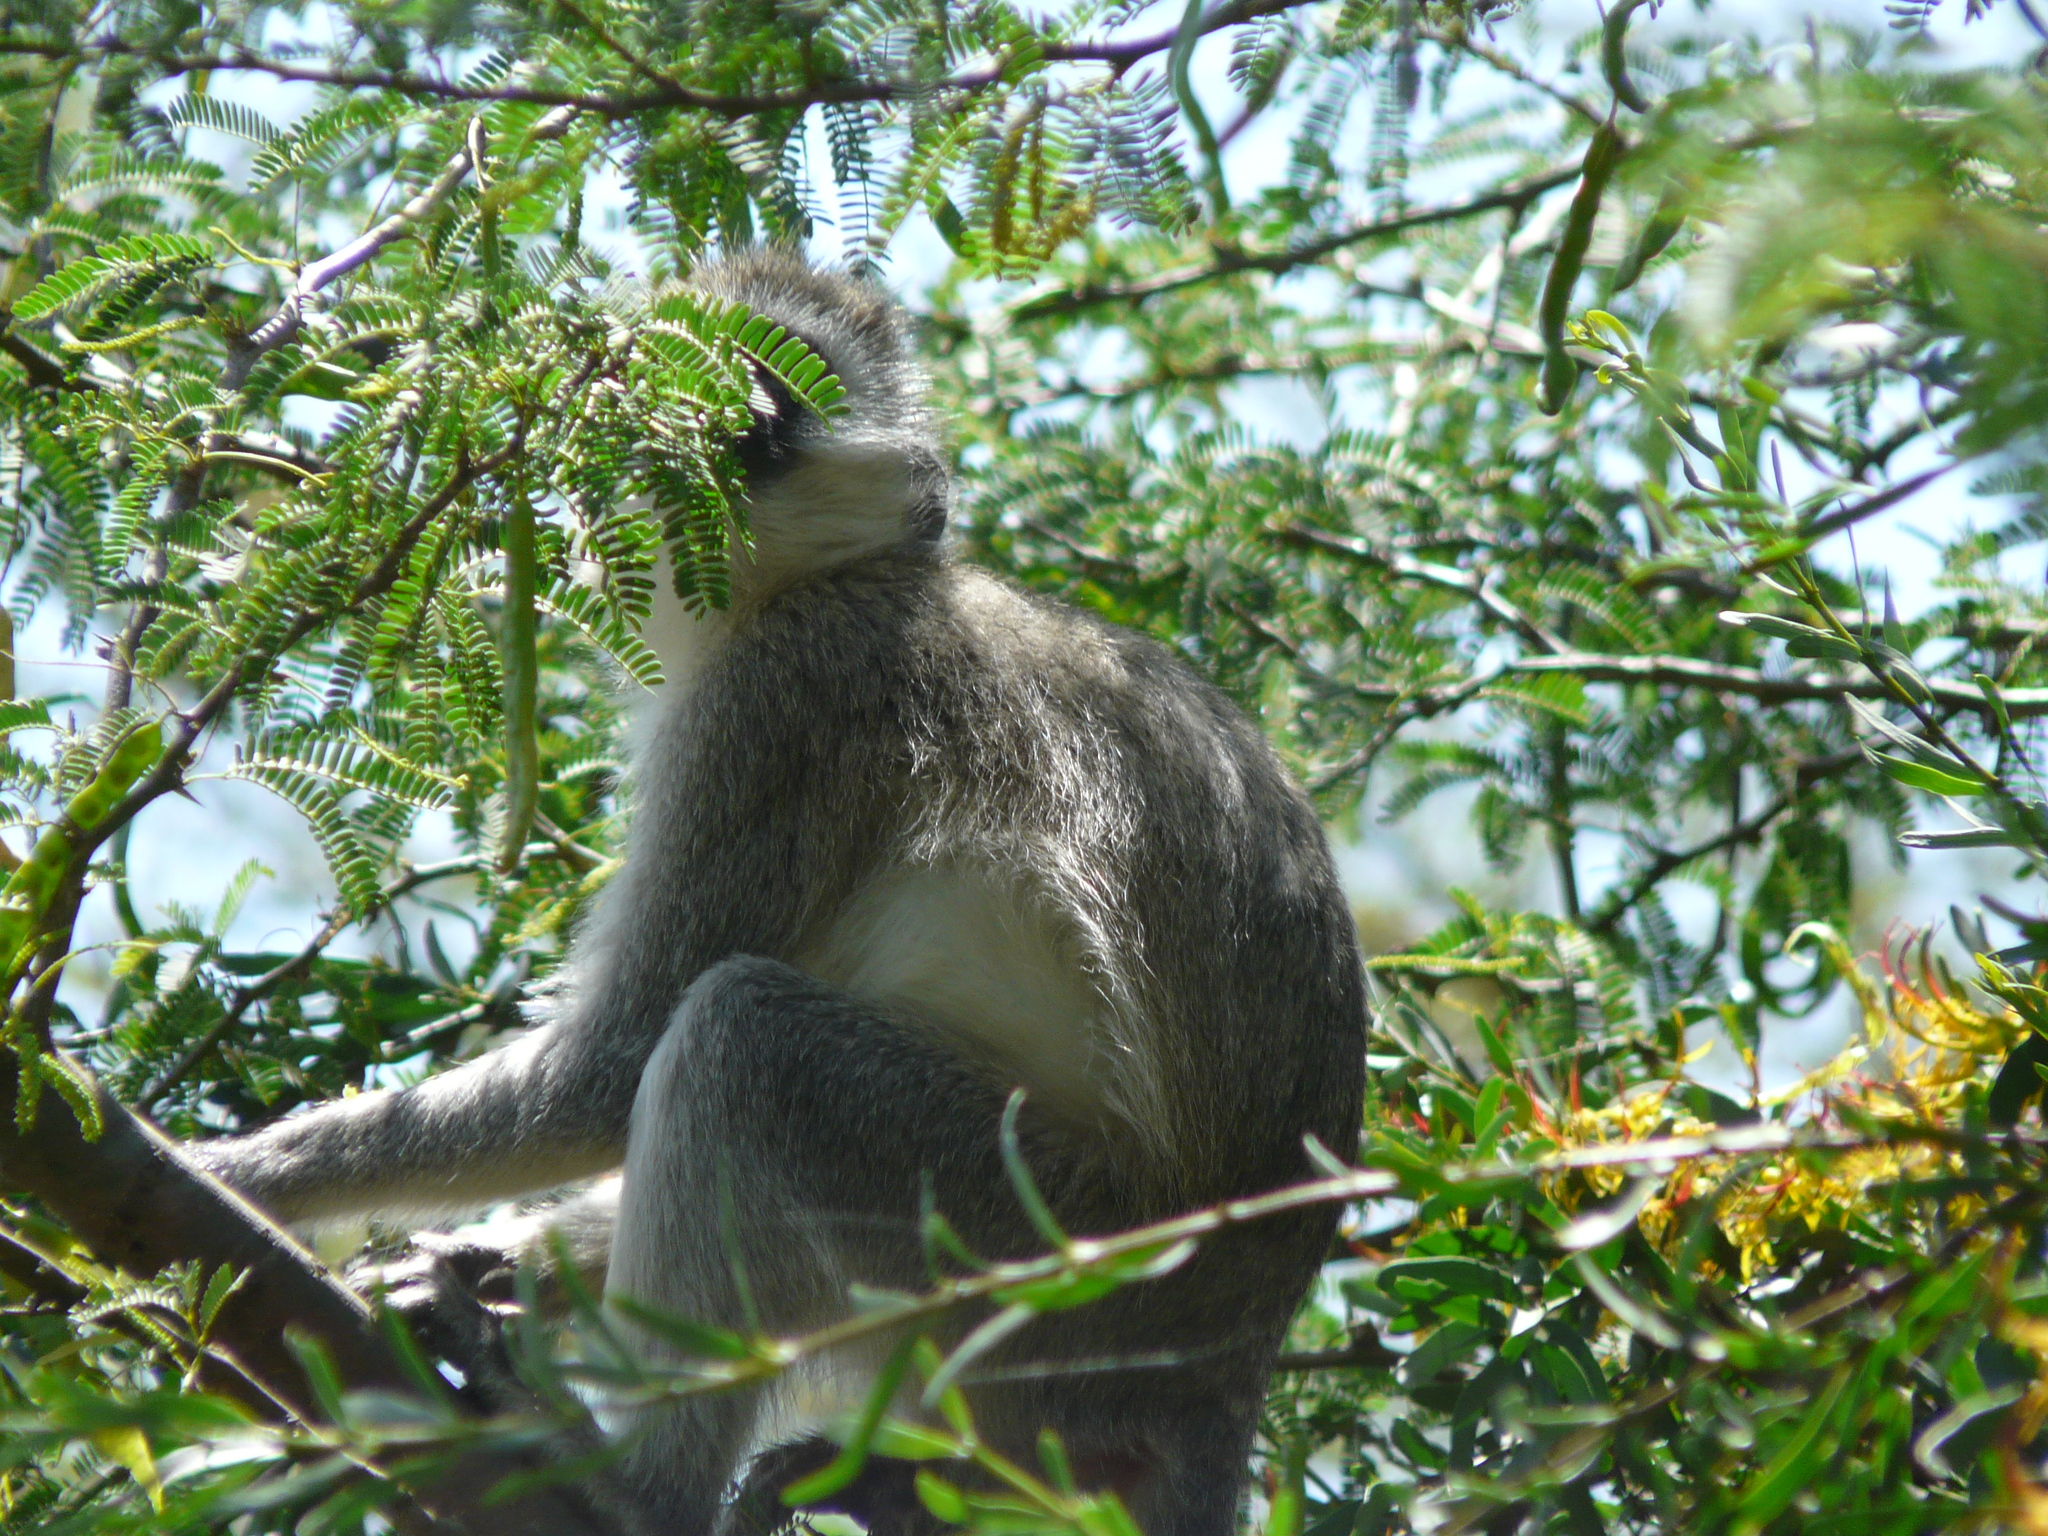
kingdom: Animalia
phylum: Chordata
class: Mammalia
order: Primates
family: Cercopithecidae
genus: Chlorocebus
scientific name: Chlorocebus pygerythrus
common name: Vervet monkey
